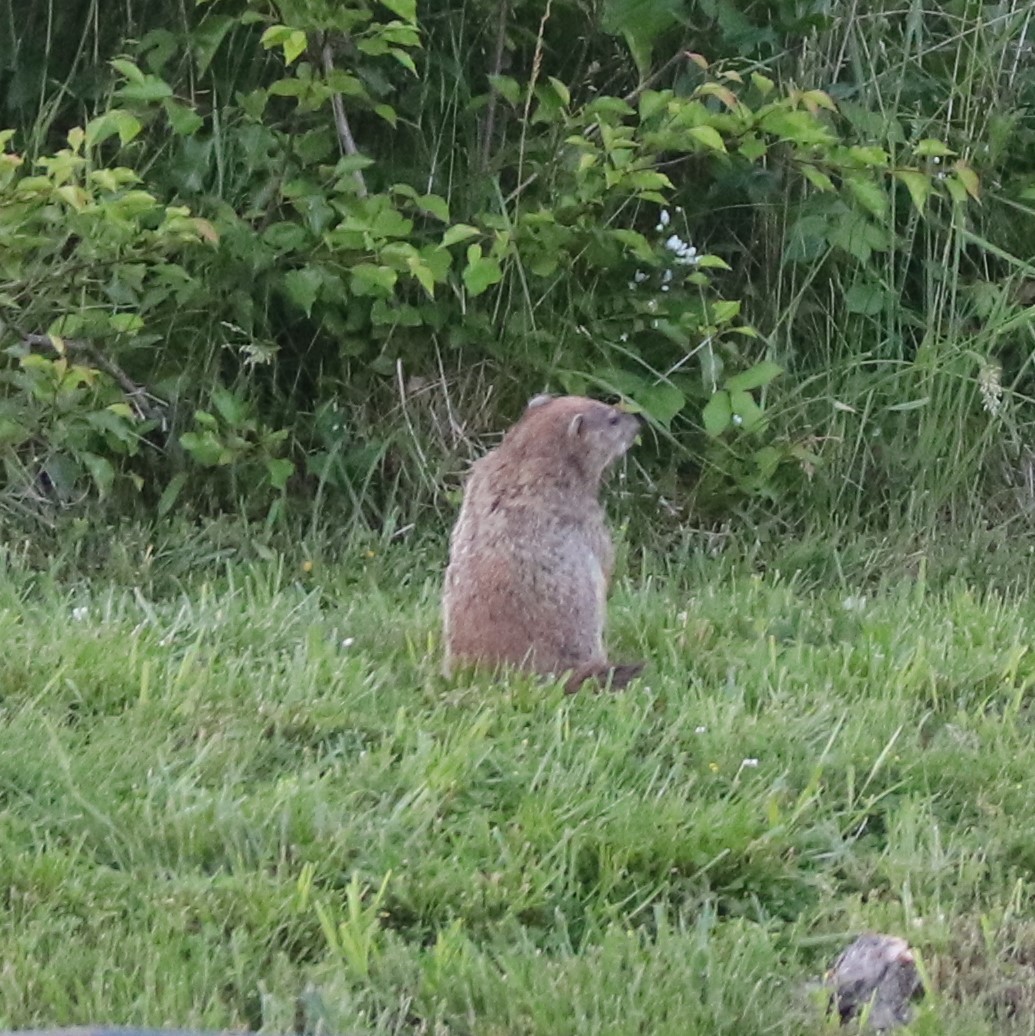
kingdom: Animalia
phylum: Chordata
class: Mammalia
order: Rodentia
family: Sciuridae
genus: Marmota
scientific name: Marmota monax
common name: Groundhog
